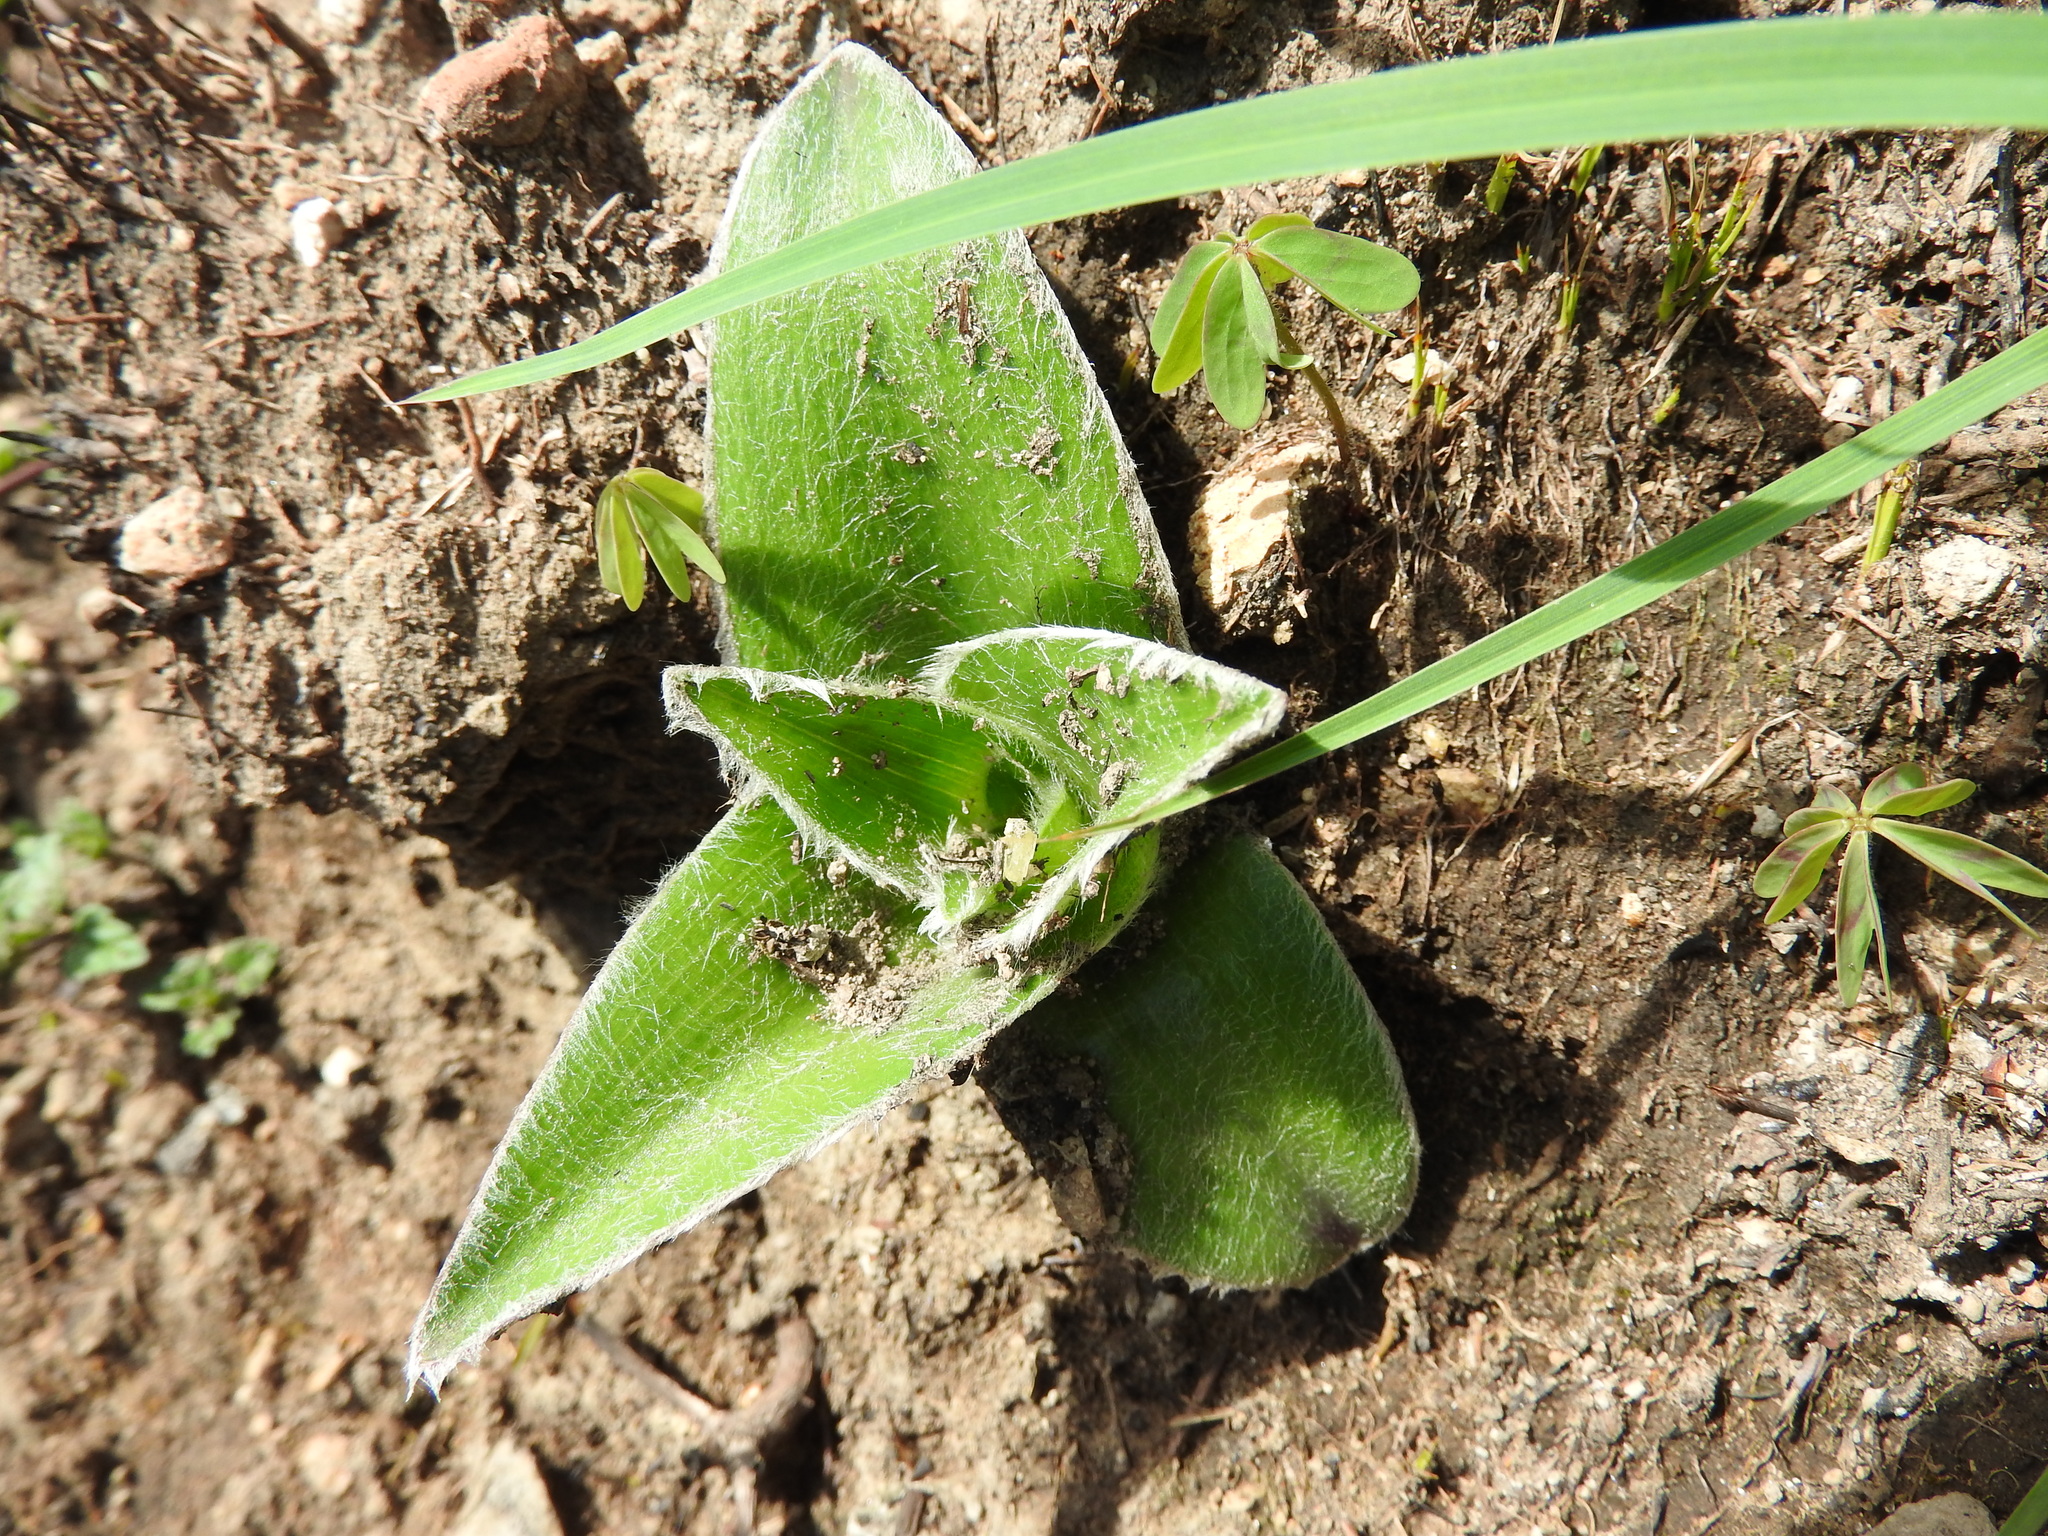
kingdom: Plantae
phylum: Tracheophyta
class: Liliopsida
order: Commelinales
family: Commelinaceae
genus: Tradescantia
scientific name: Tradescantia crassifolia
